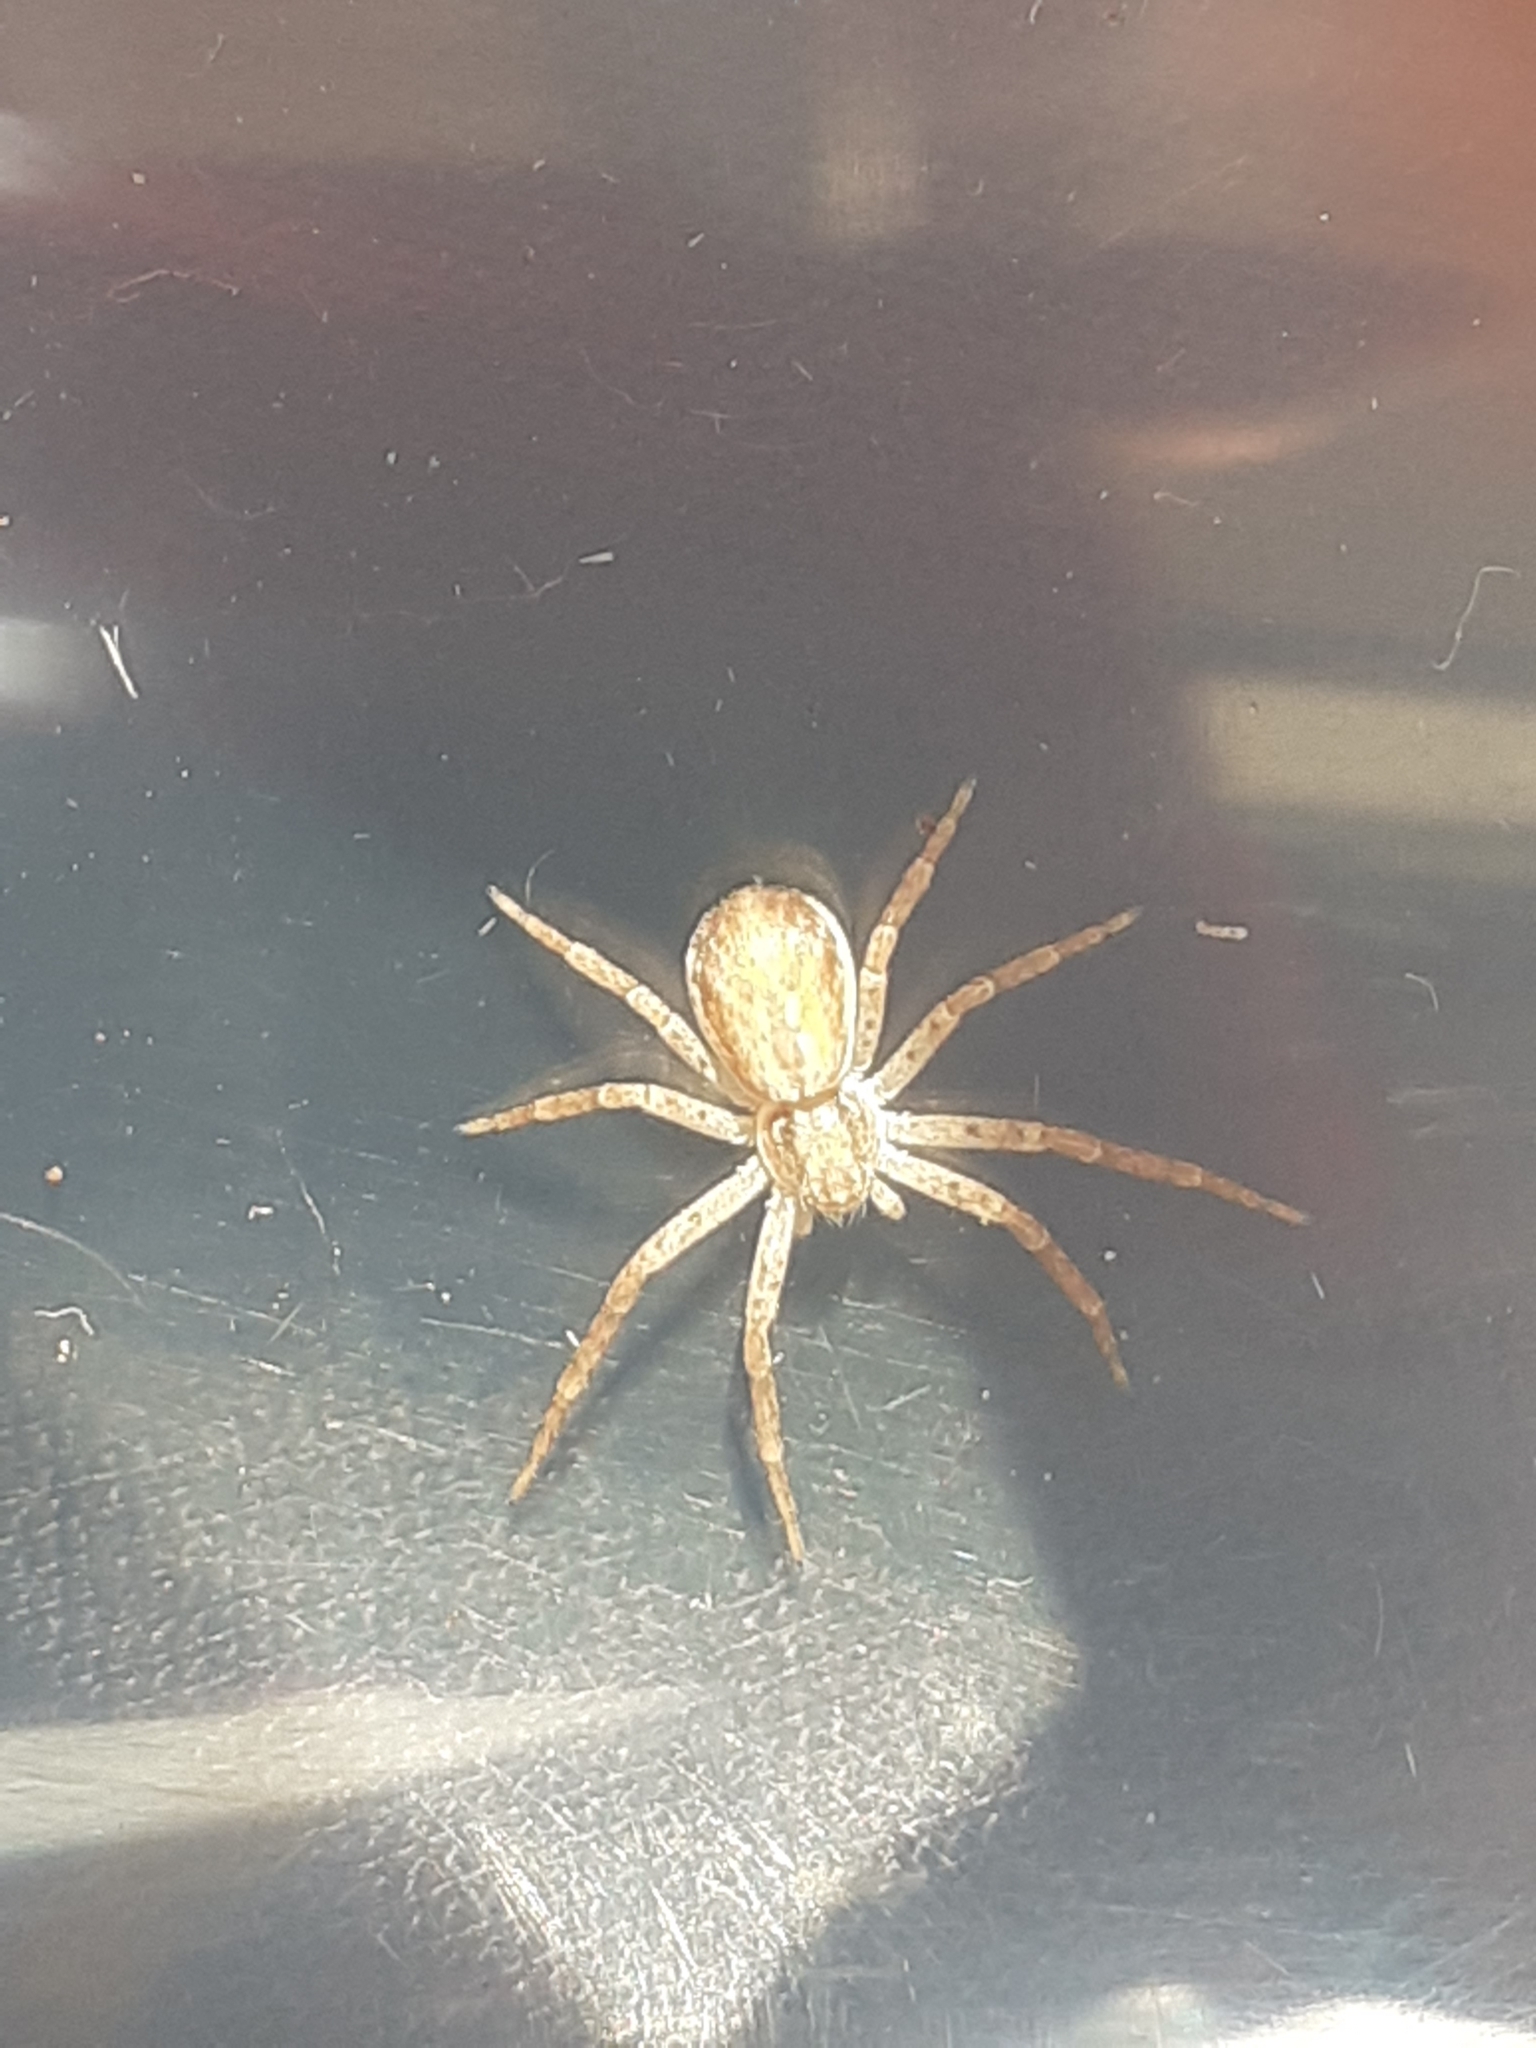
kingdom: Animalia
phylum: Arthropoda
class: Arachnida
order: Araneae
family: Philodromidae
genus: Philodromus
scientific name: Philodromus dispar
